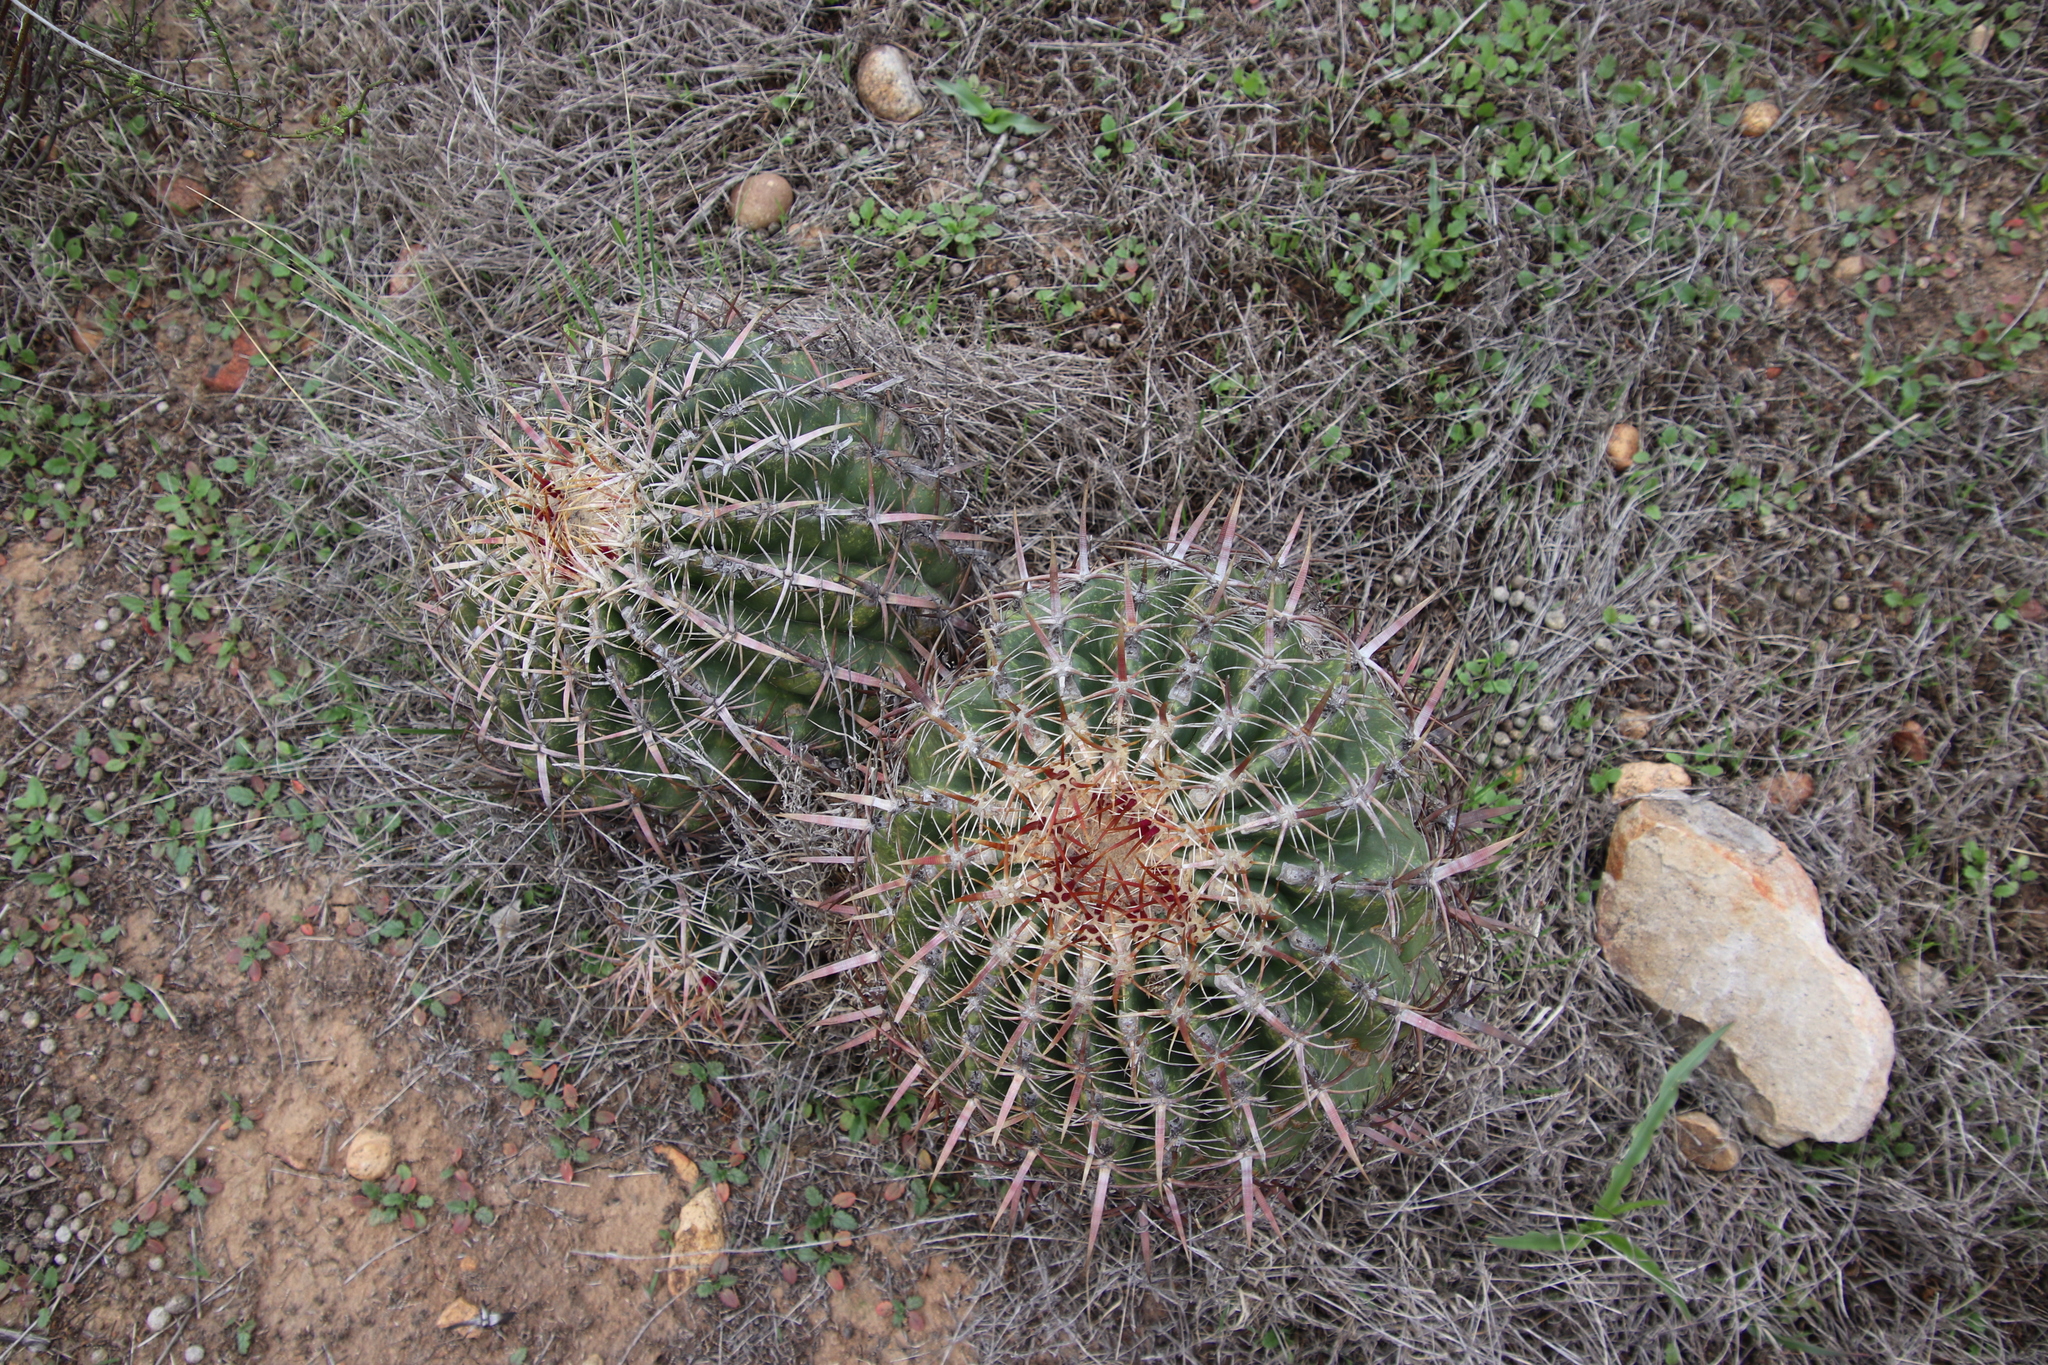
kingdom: Plantae
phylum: Tracheophyta
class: Magnoliopsida
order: Caryophyllales
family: Cactaceae
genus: Ferocactus
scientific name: Ferocactus viridescens
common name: San diego barrel cactus
